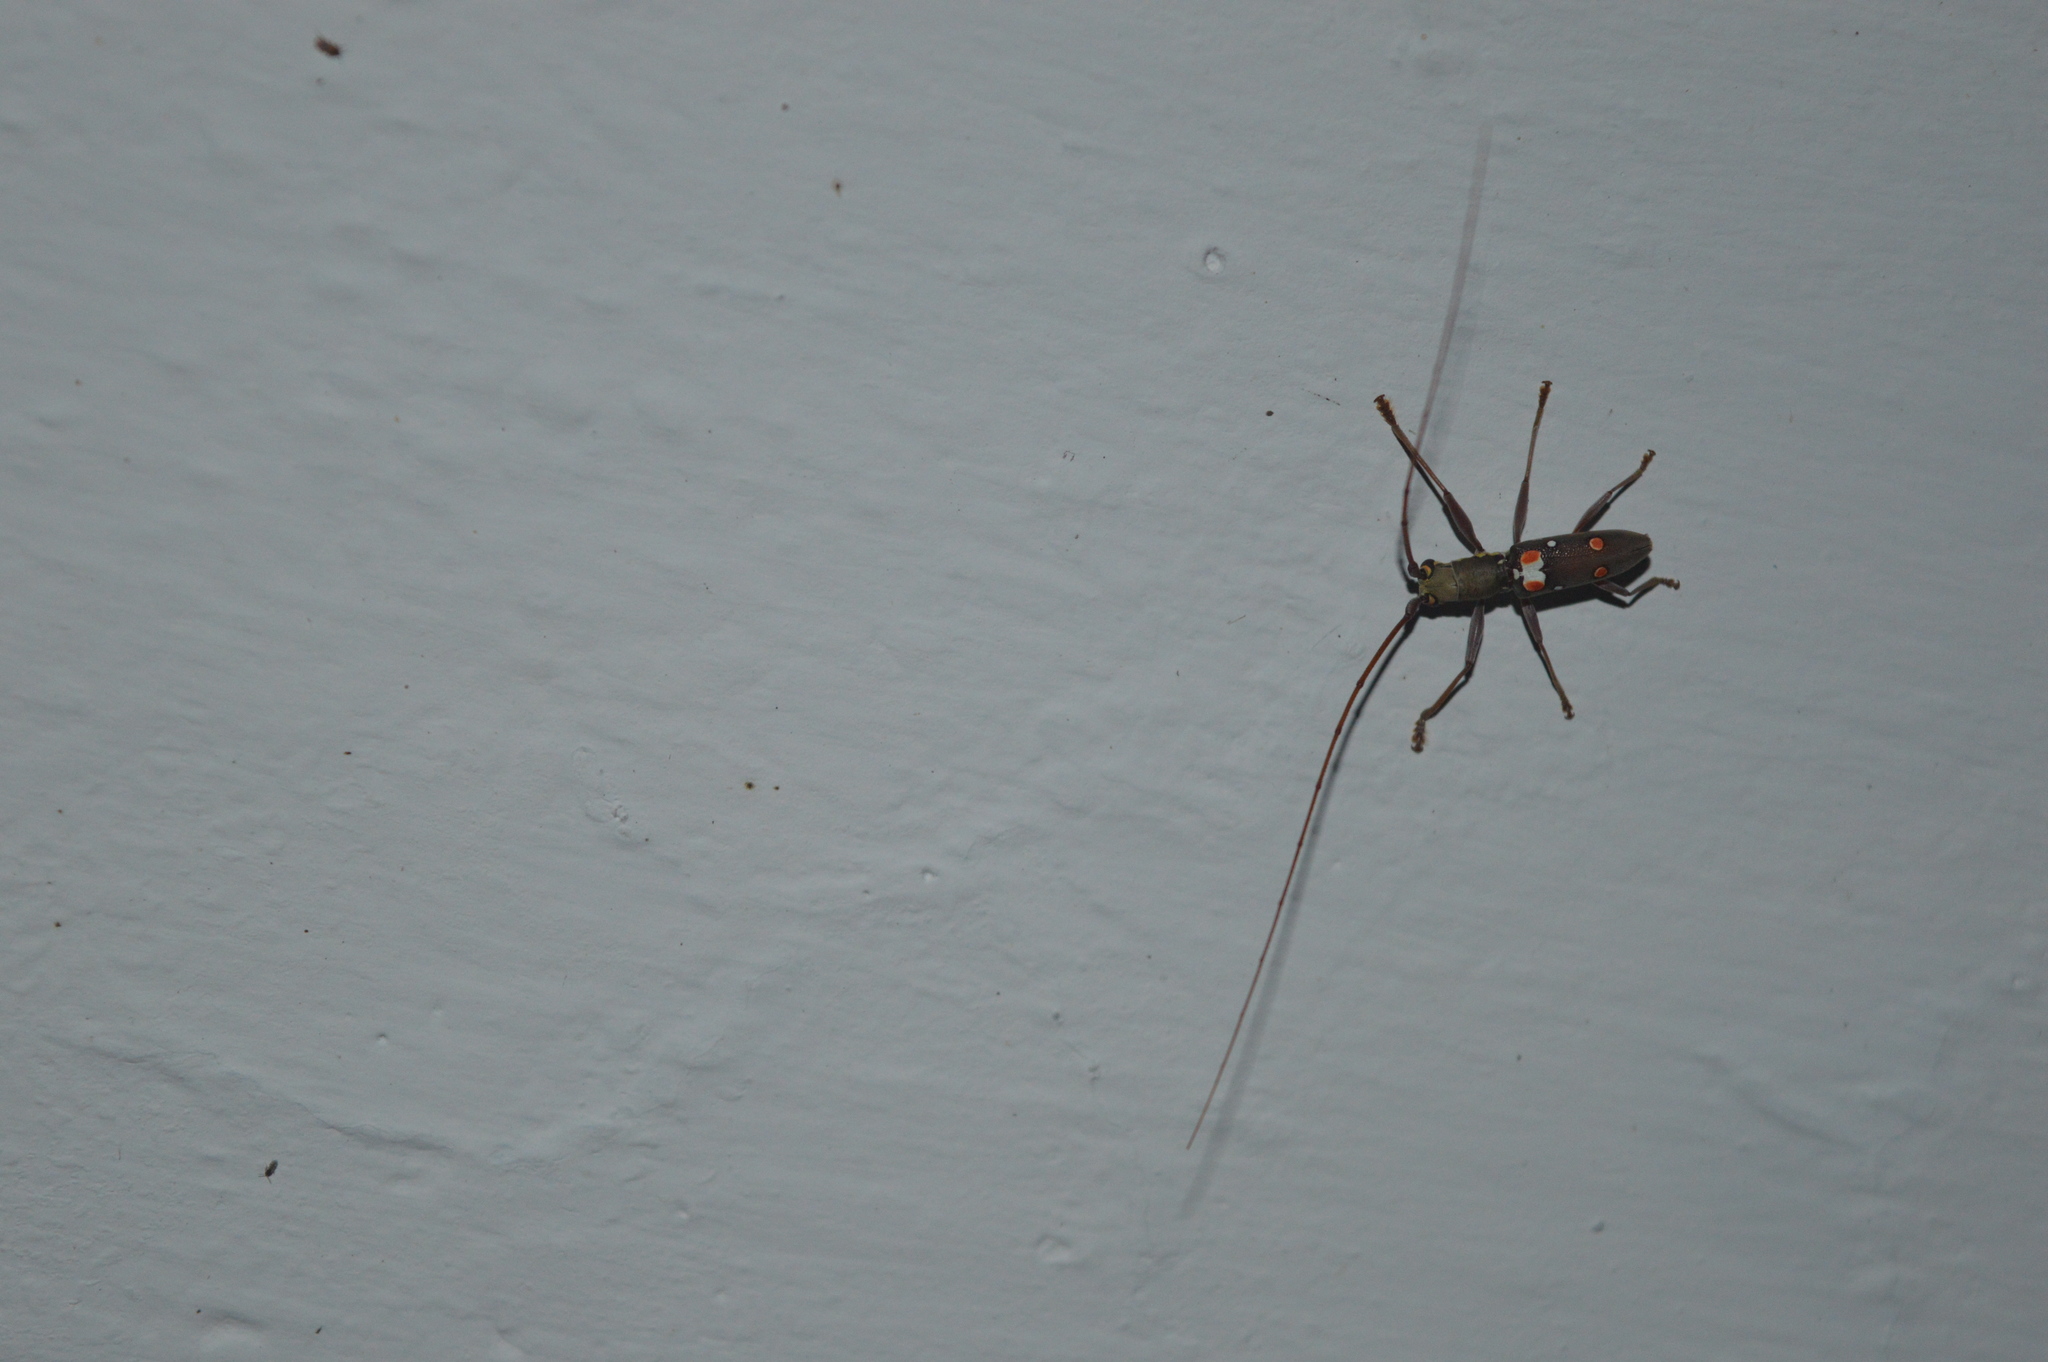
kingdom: Animalia
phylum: Arthropoda
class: Insecta
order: Coleoptera
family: Cerambycidae
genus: Olenecamptus
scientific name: Olenecamptus bilobus
